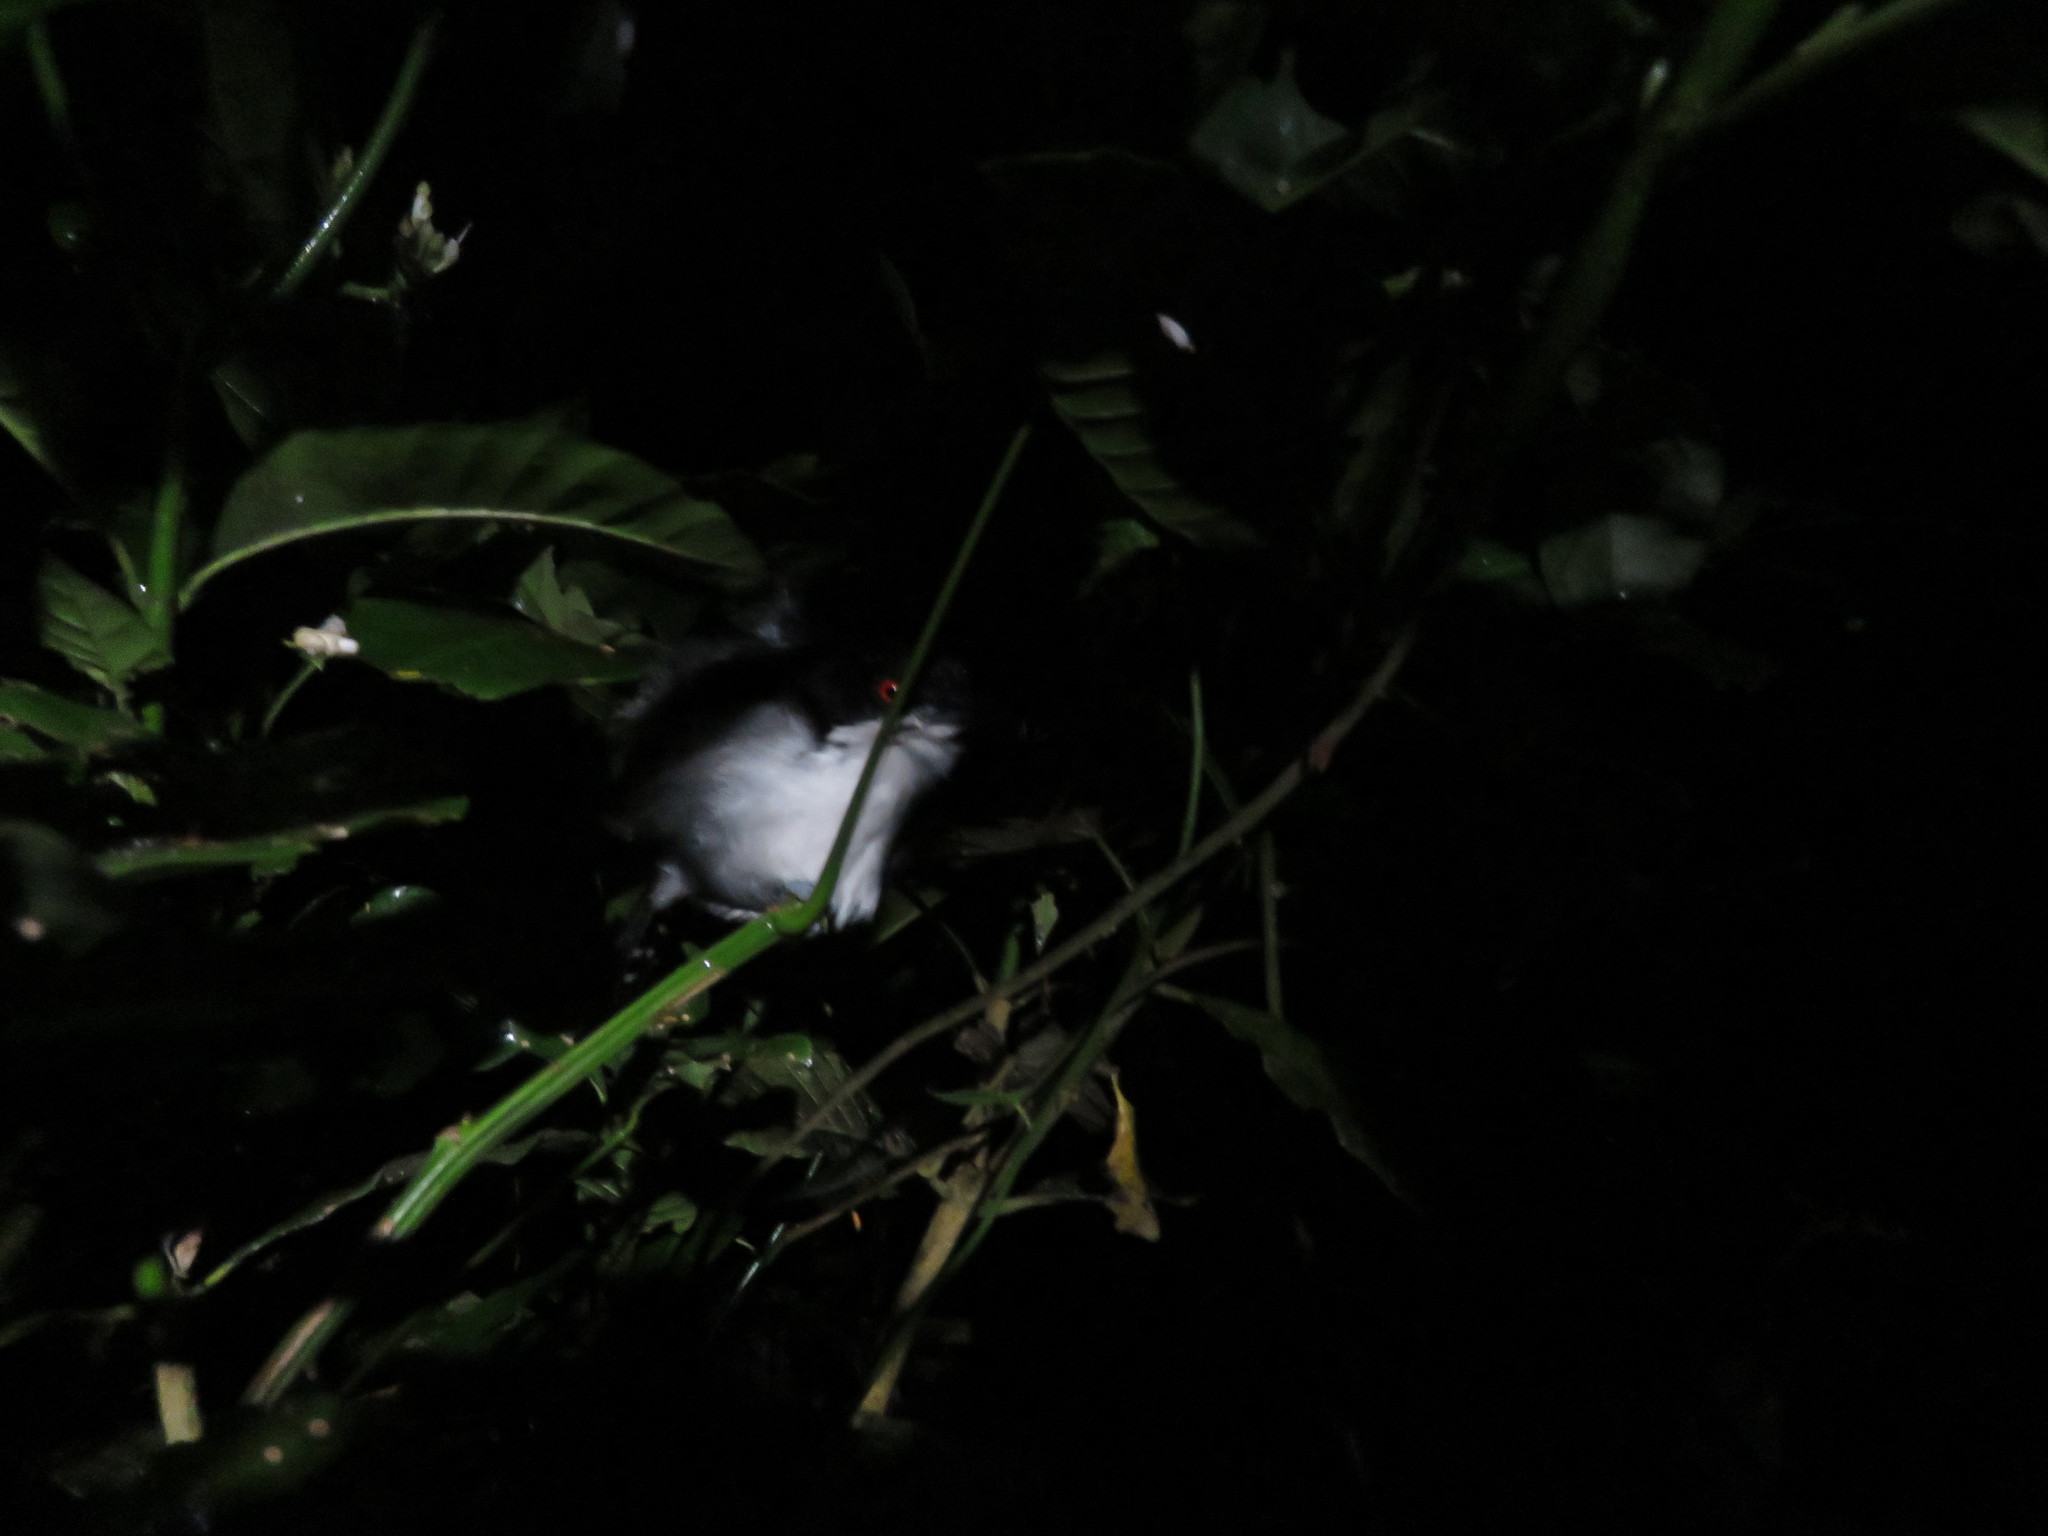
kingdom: Animalia
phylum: Chordata
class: Aves
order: Passeriformes
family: Thamnophilidae
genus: Taraba
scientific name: Taraba major
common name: Great antshrike
